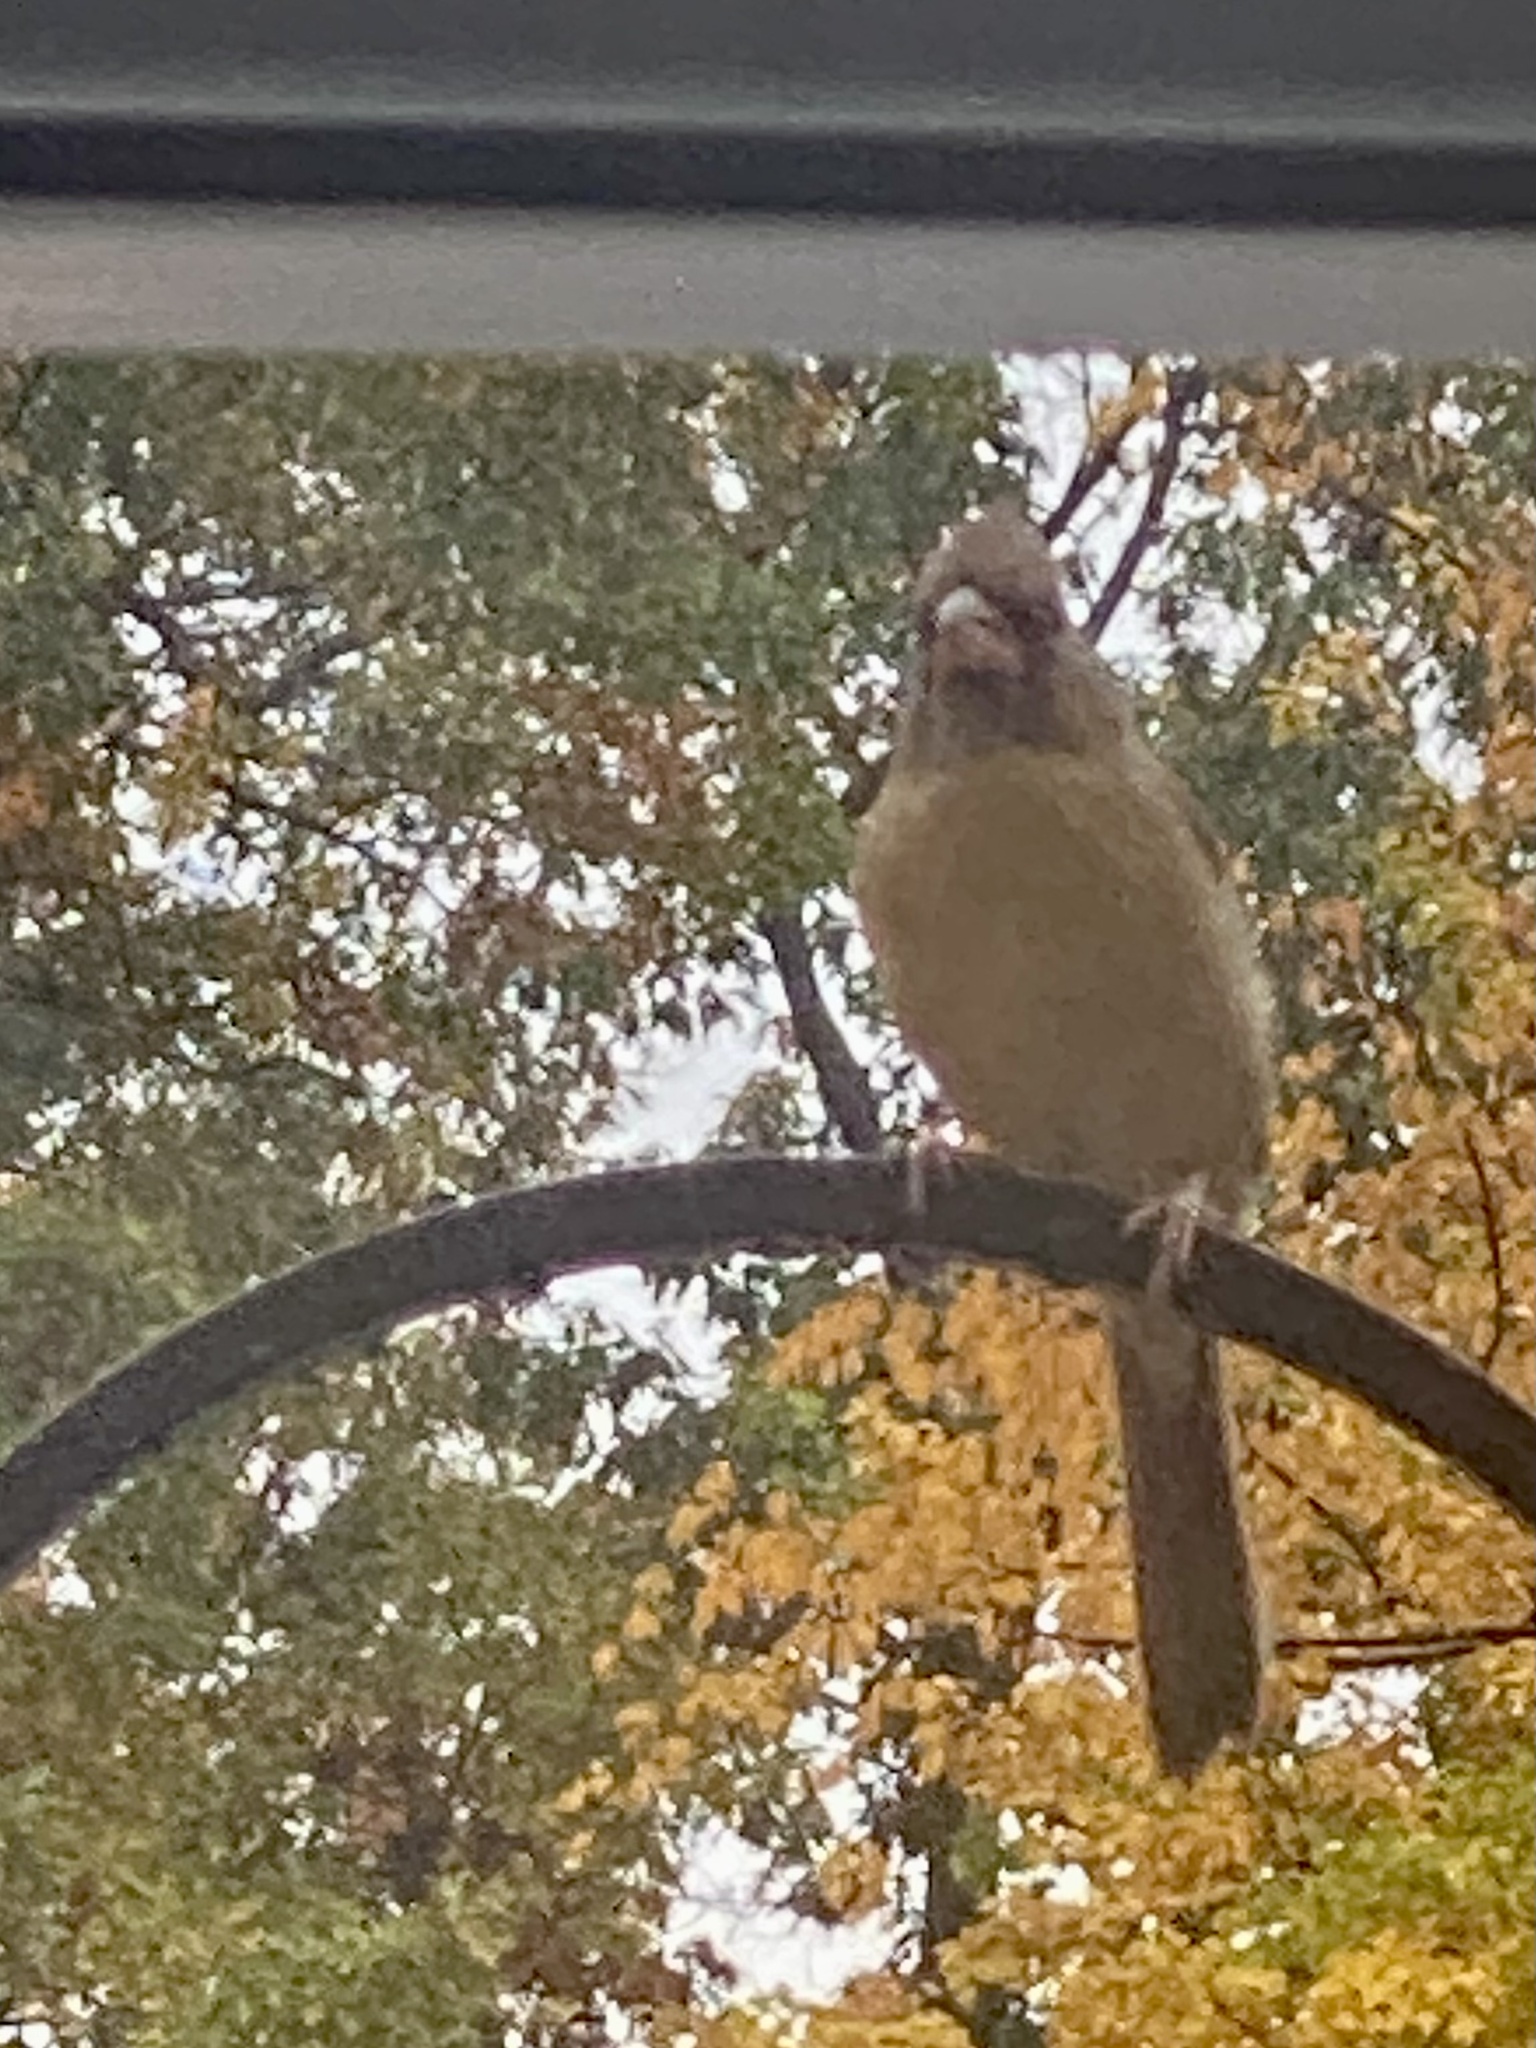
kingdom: Animalia
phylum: Chordata
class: Aves
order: Passeriformes
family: Cardinalidae
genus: Cardinalis
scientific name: Cardinalis cardinalis
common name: Northern cardinal
